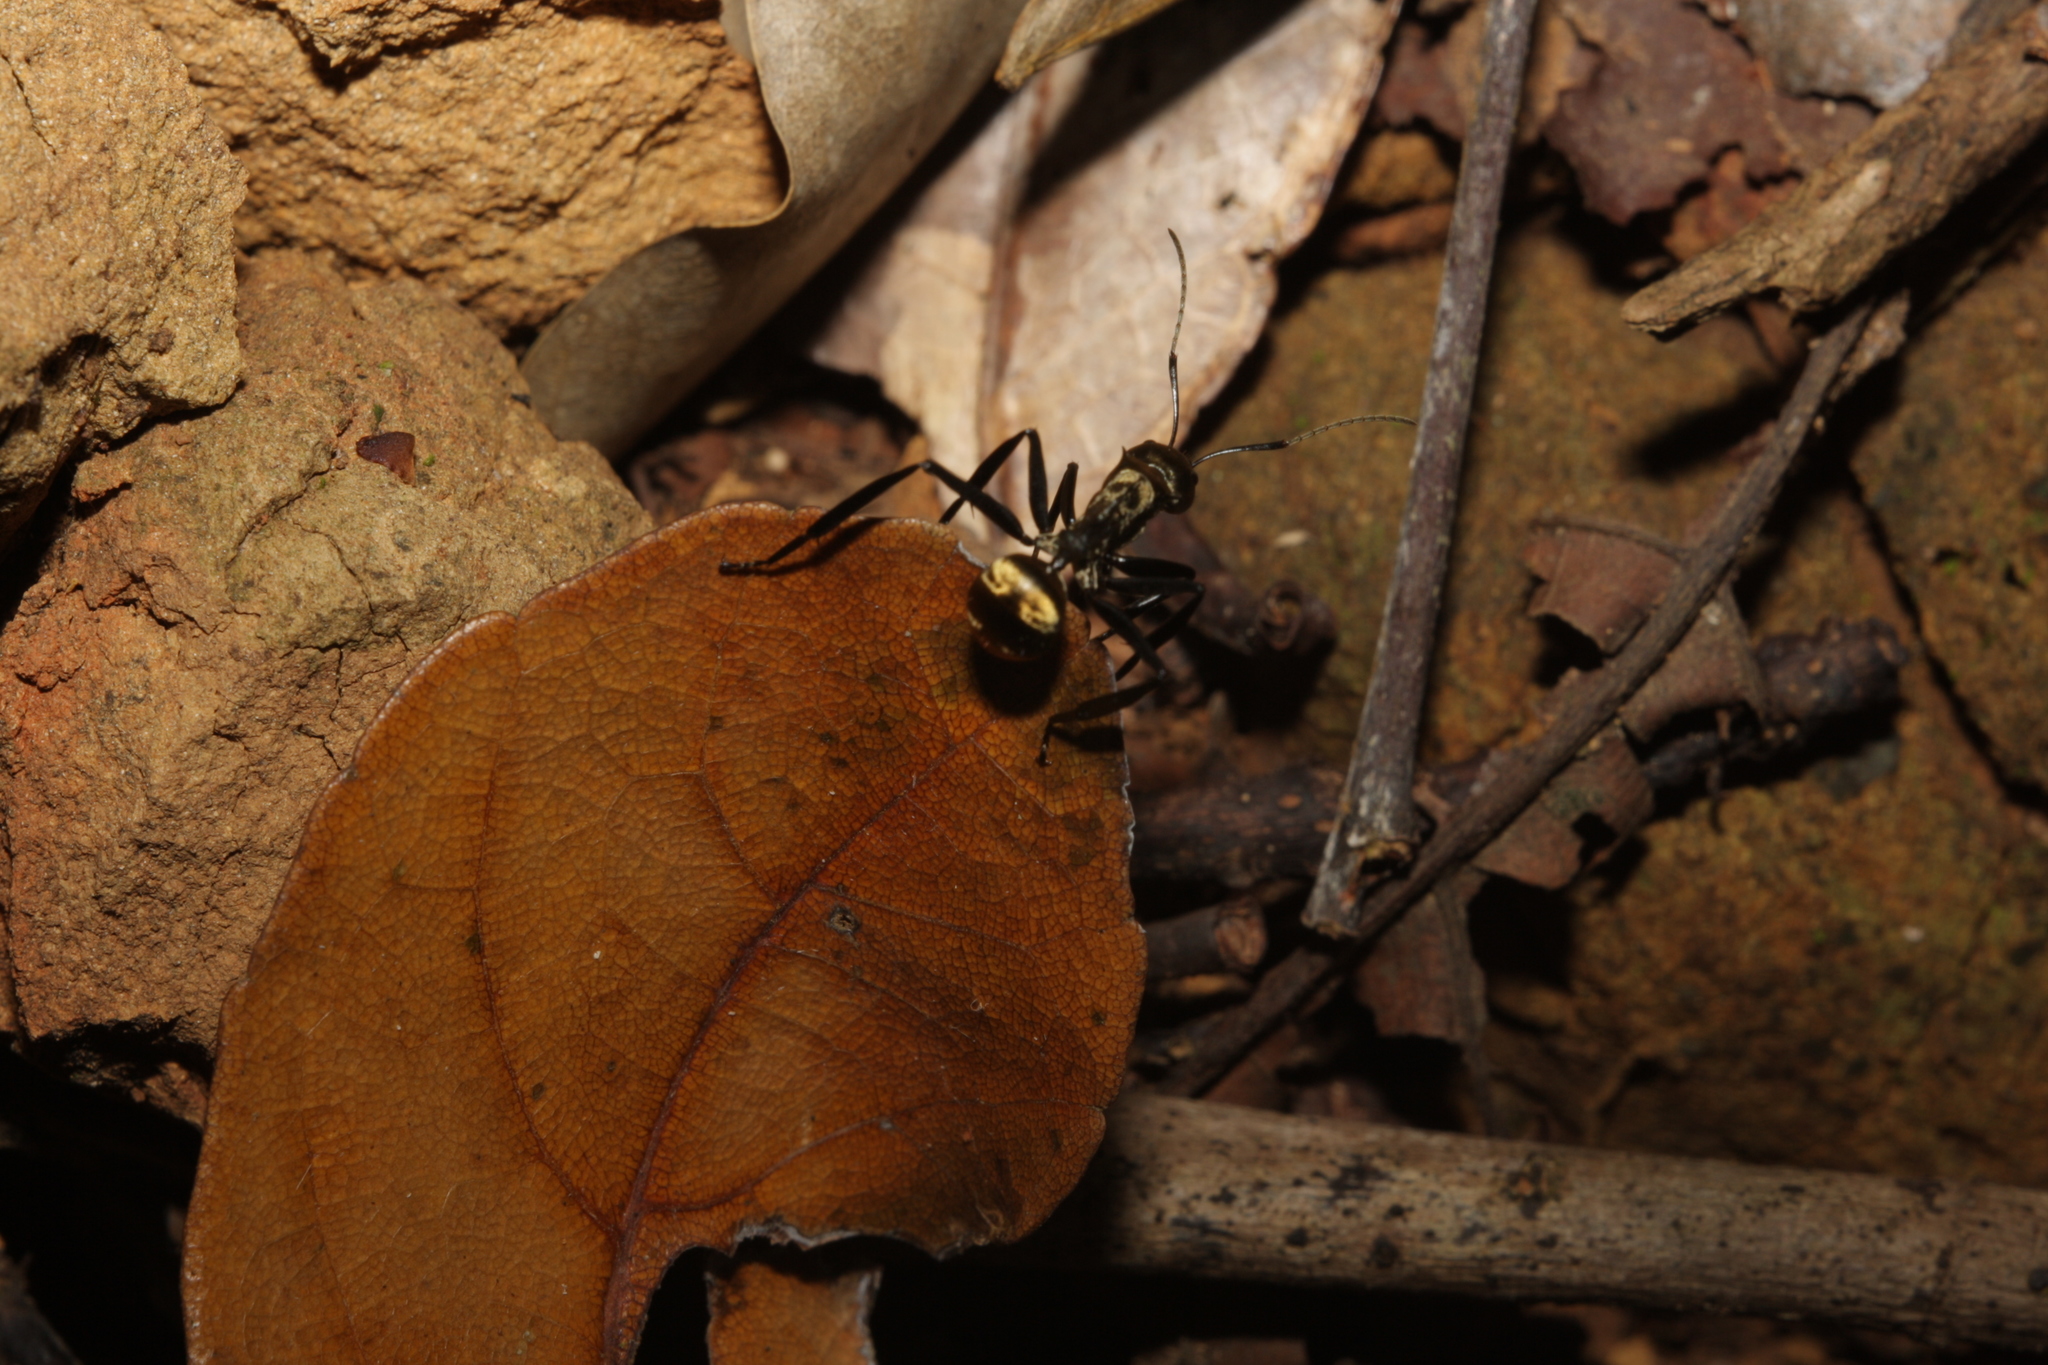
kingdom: Animalia
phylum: Arthropoda
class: Insecta
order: Hymenoptera
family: Formicidae
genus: Camponotus
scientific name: Camponotus sericeiventris
